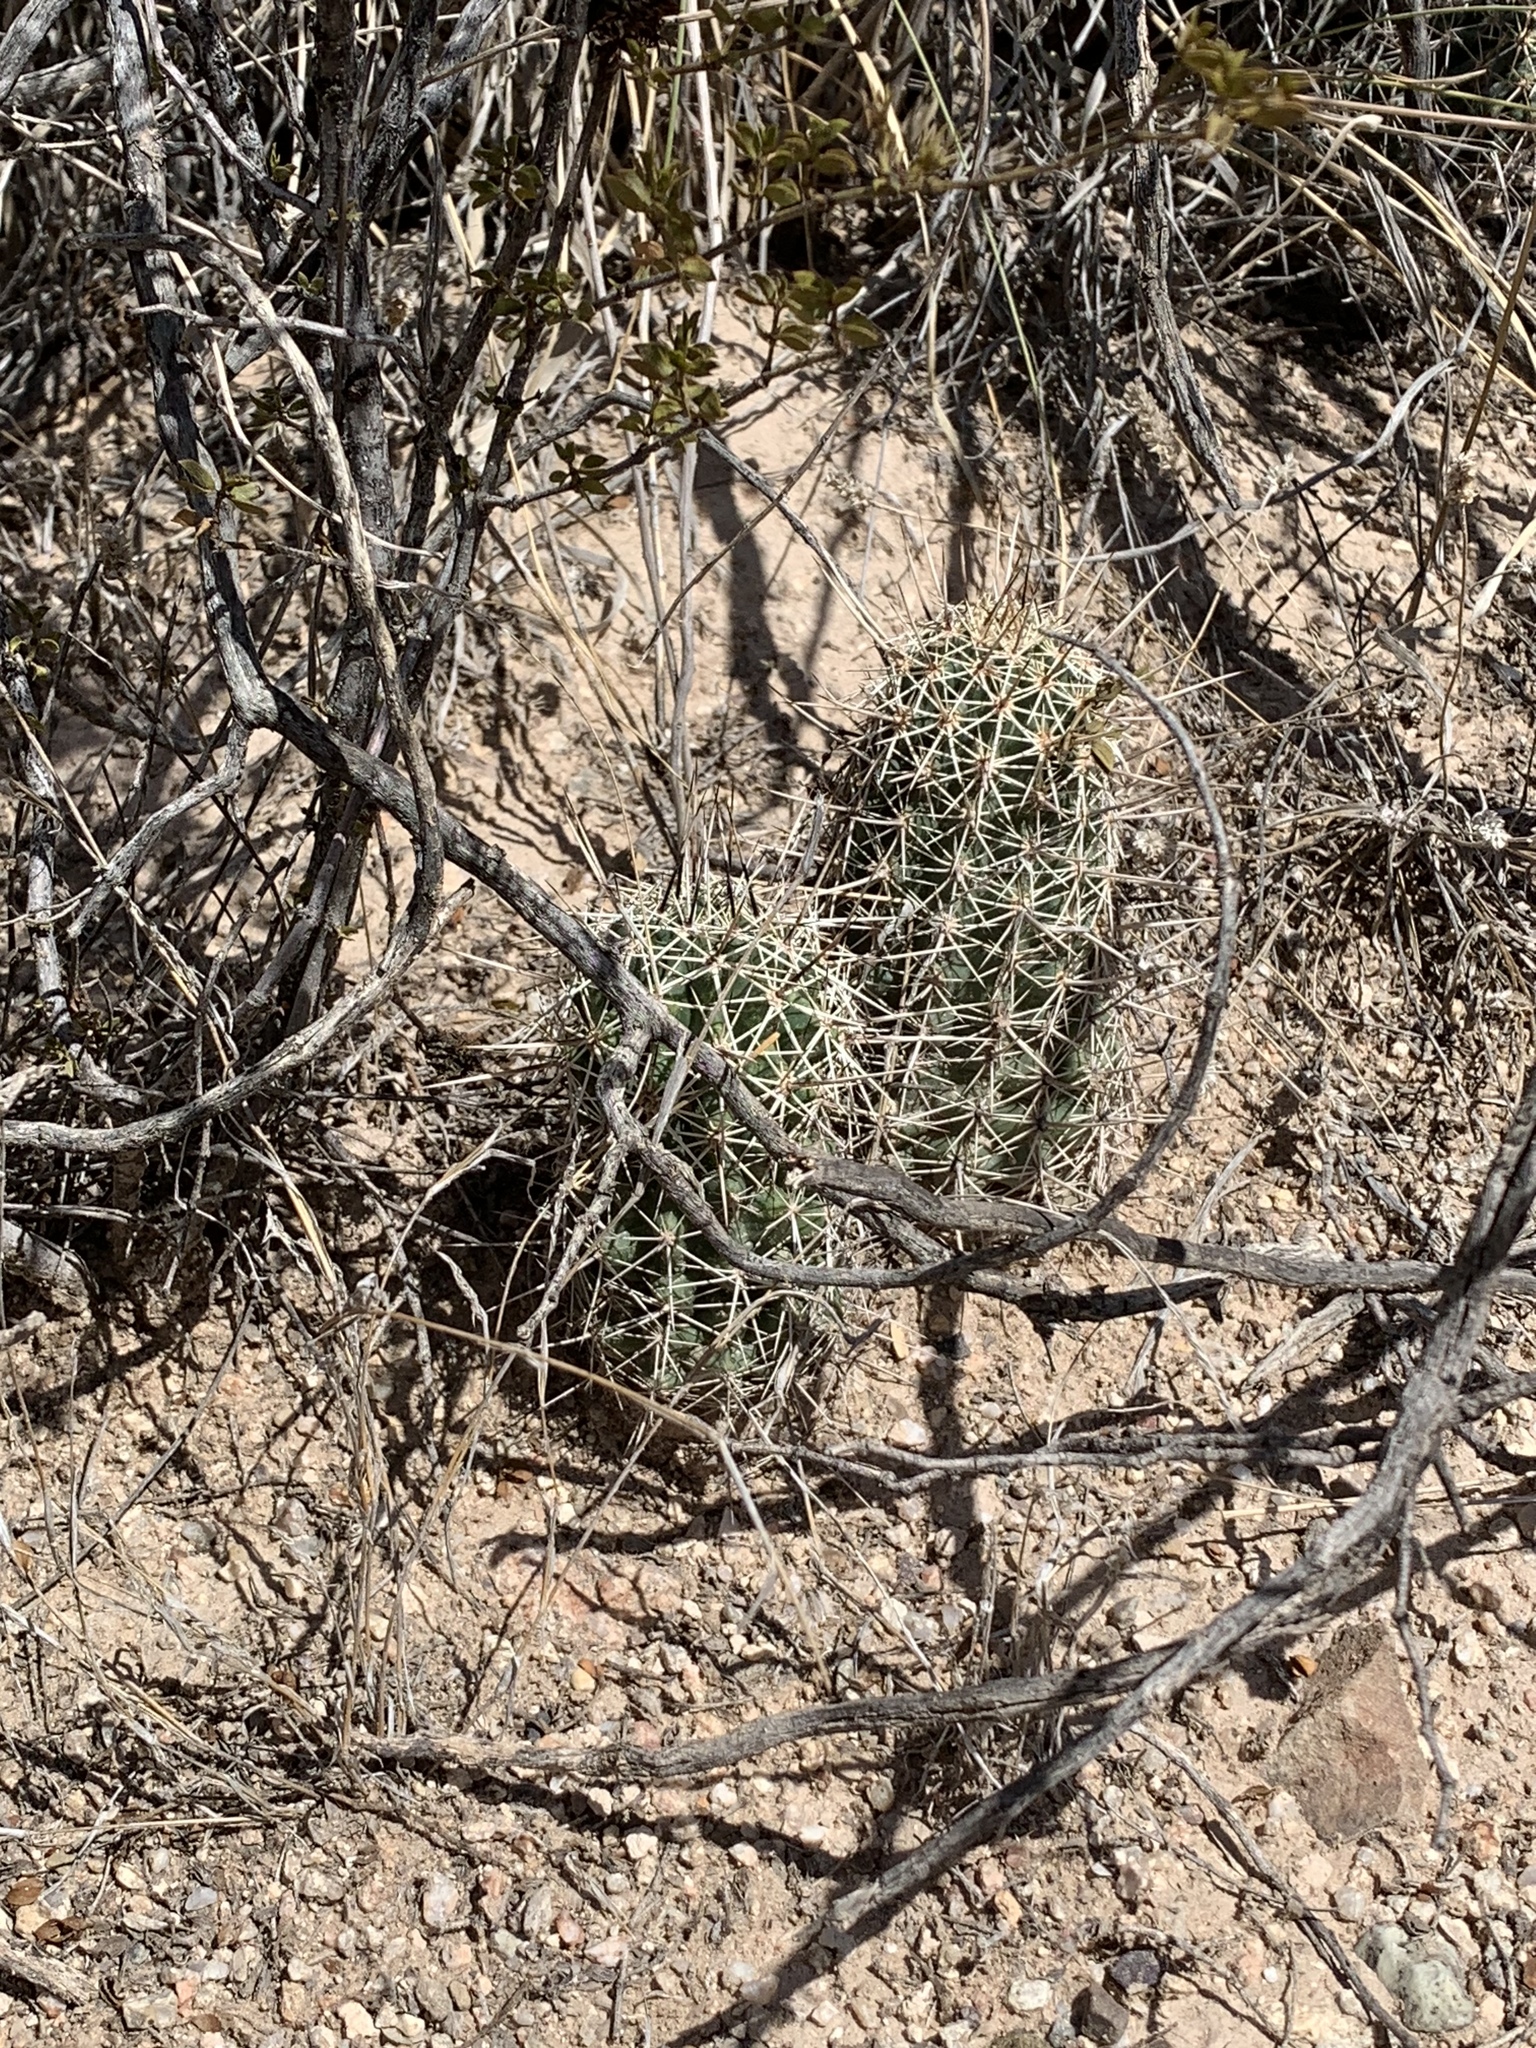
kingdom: Plantae
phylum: Tracheophyta
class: Magnoliopsida
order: Caryophyllales
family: Cactaceae
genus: Echinocereus
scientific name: Echinocereus fasciculatus
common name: Bundle hedgehog
